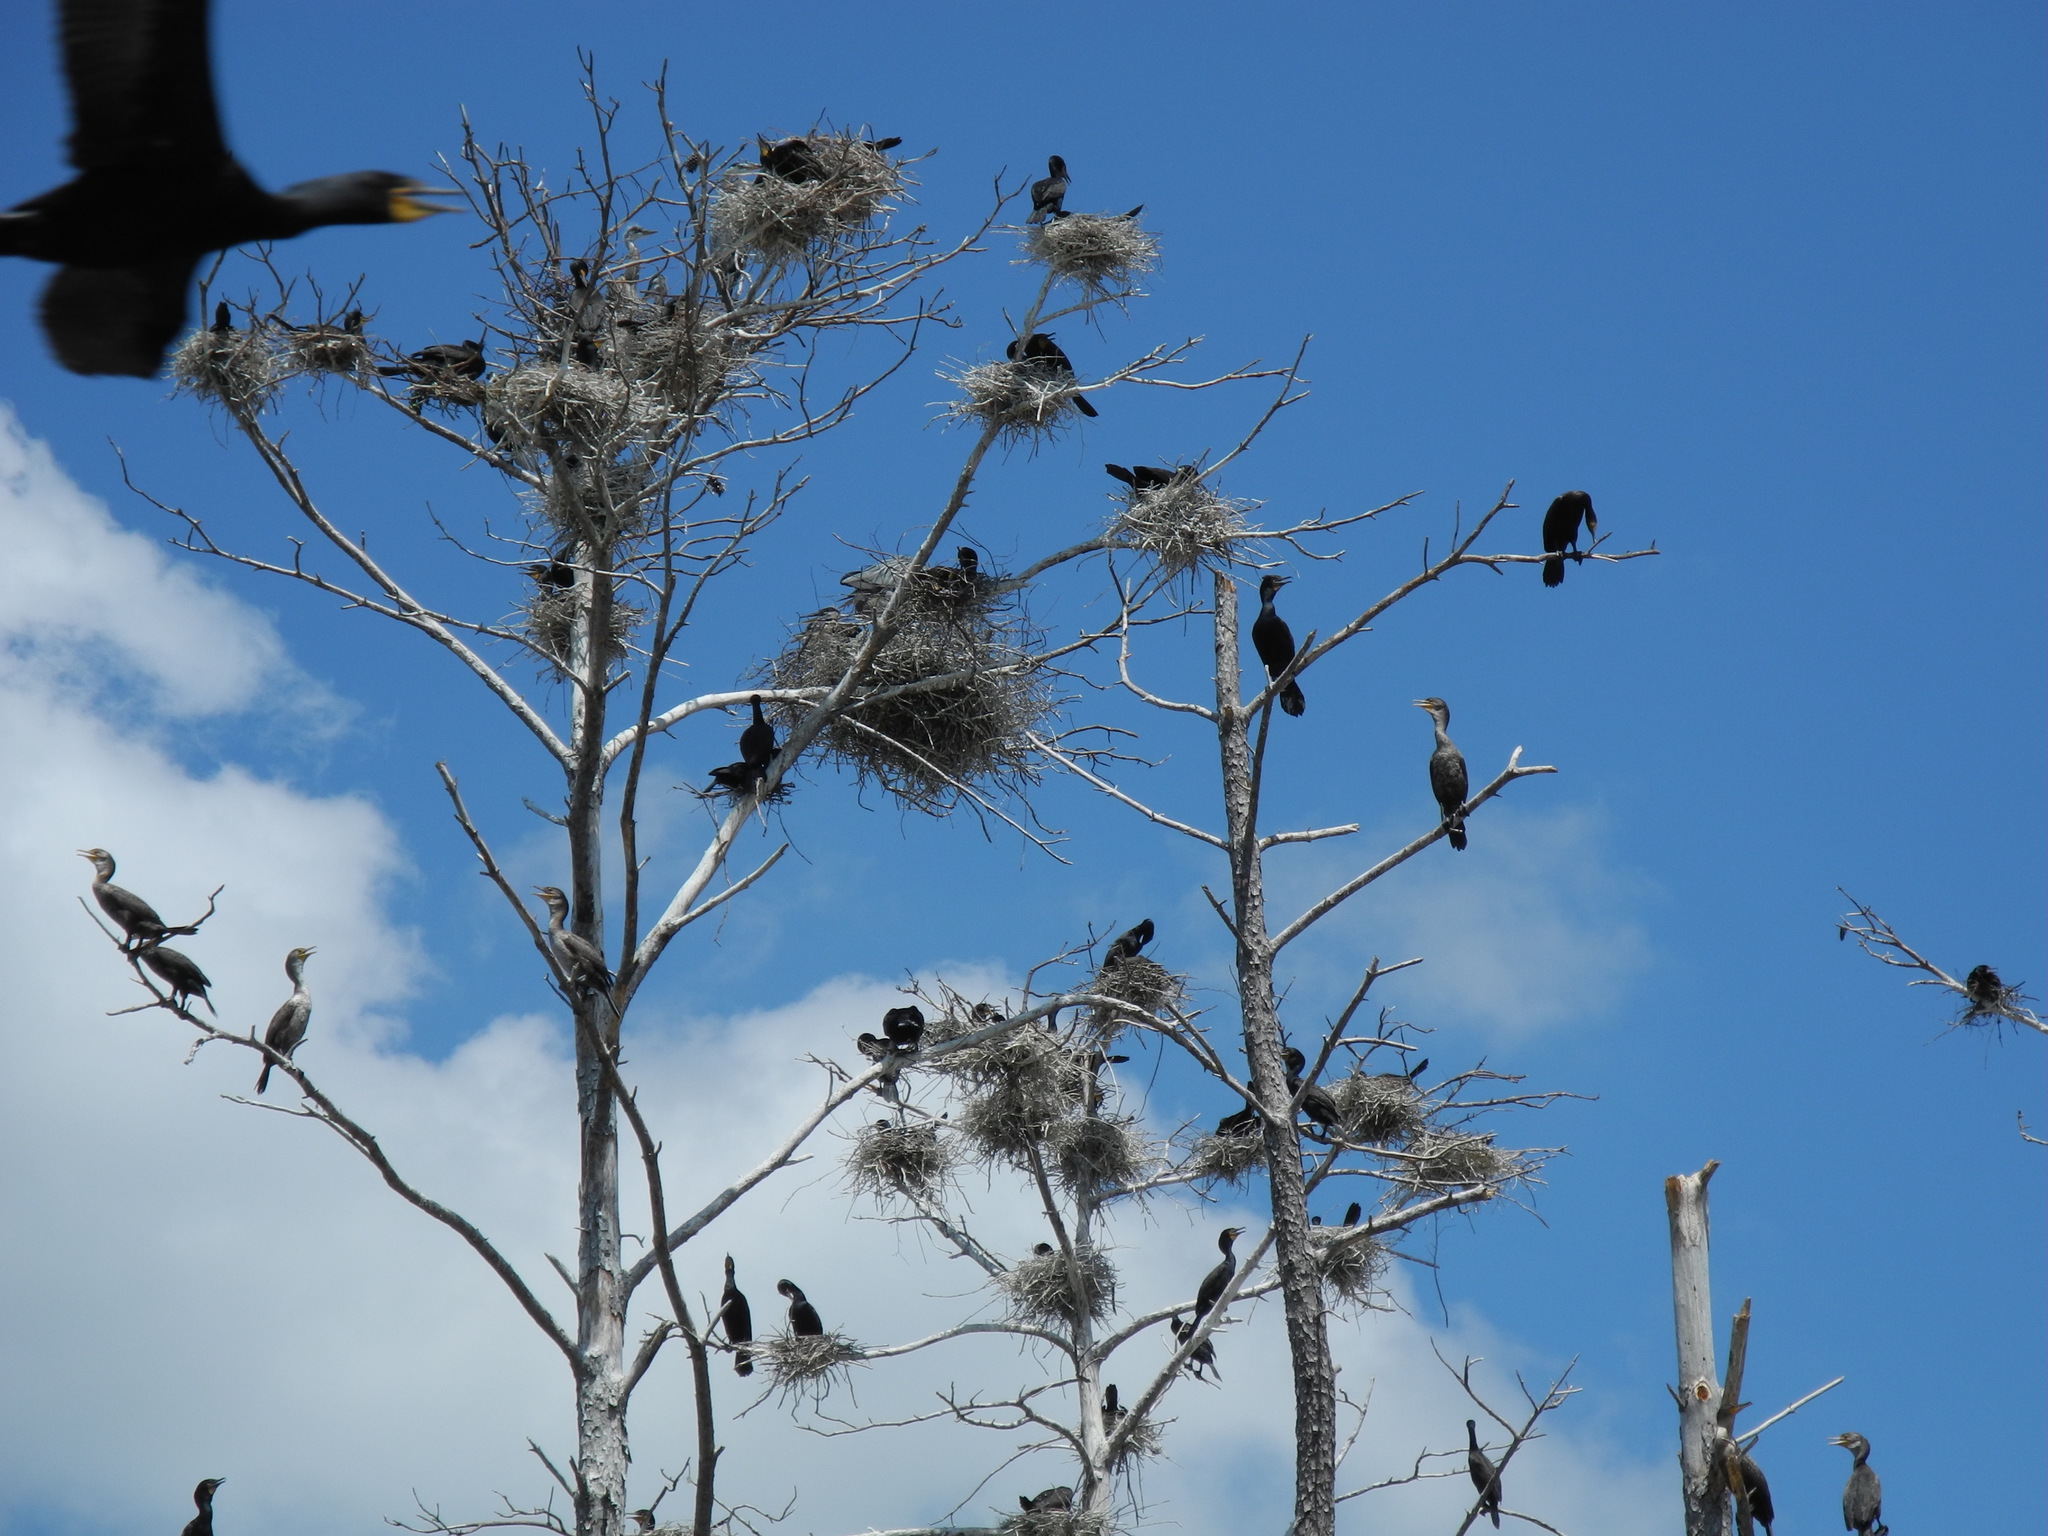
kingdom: Animalia
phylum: Chordata
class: Aves
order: Suliformes
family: Phalacrocoracidae
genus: Phalacrocorax
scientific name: Phalacrocorax auritus
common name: Double-crested cormorant
